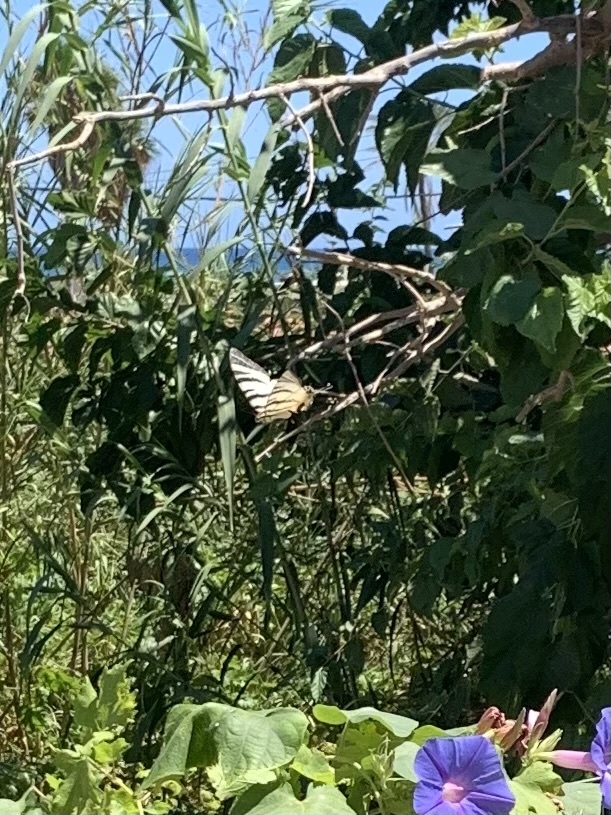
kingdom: Animalia
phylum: Arthropoda
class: Insecta
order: Lepidoptera
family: Papilionidae
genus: Iphiclides
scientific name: Iphiclides podalirius
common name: Scarce swallowtail
